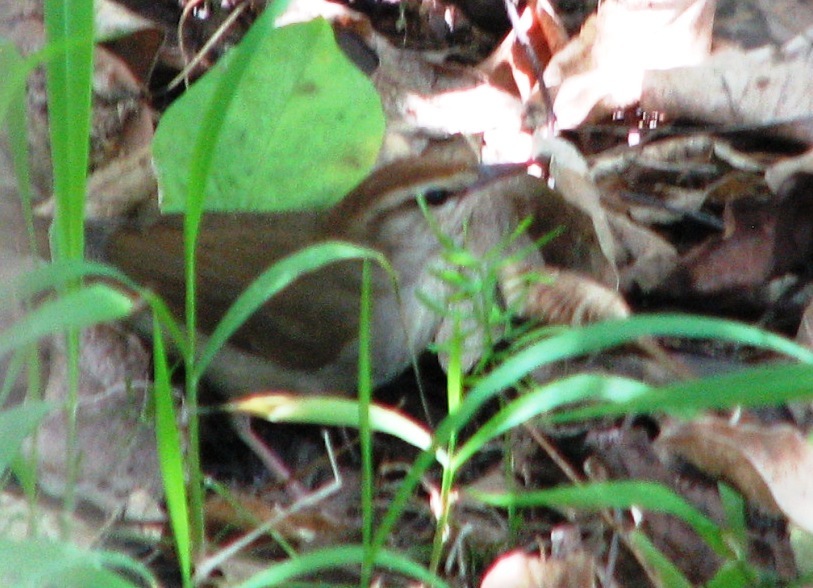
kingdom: Animalia
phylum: Chordata
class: Aves
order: Passeriformes
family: Parulidae
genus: Limnothlypis
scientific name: Limnothlypis swainsonii
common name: Swainson's warbler
